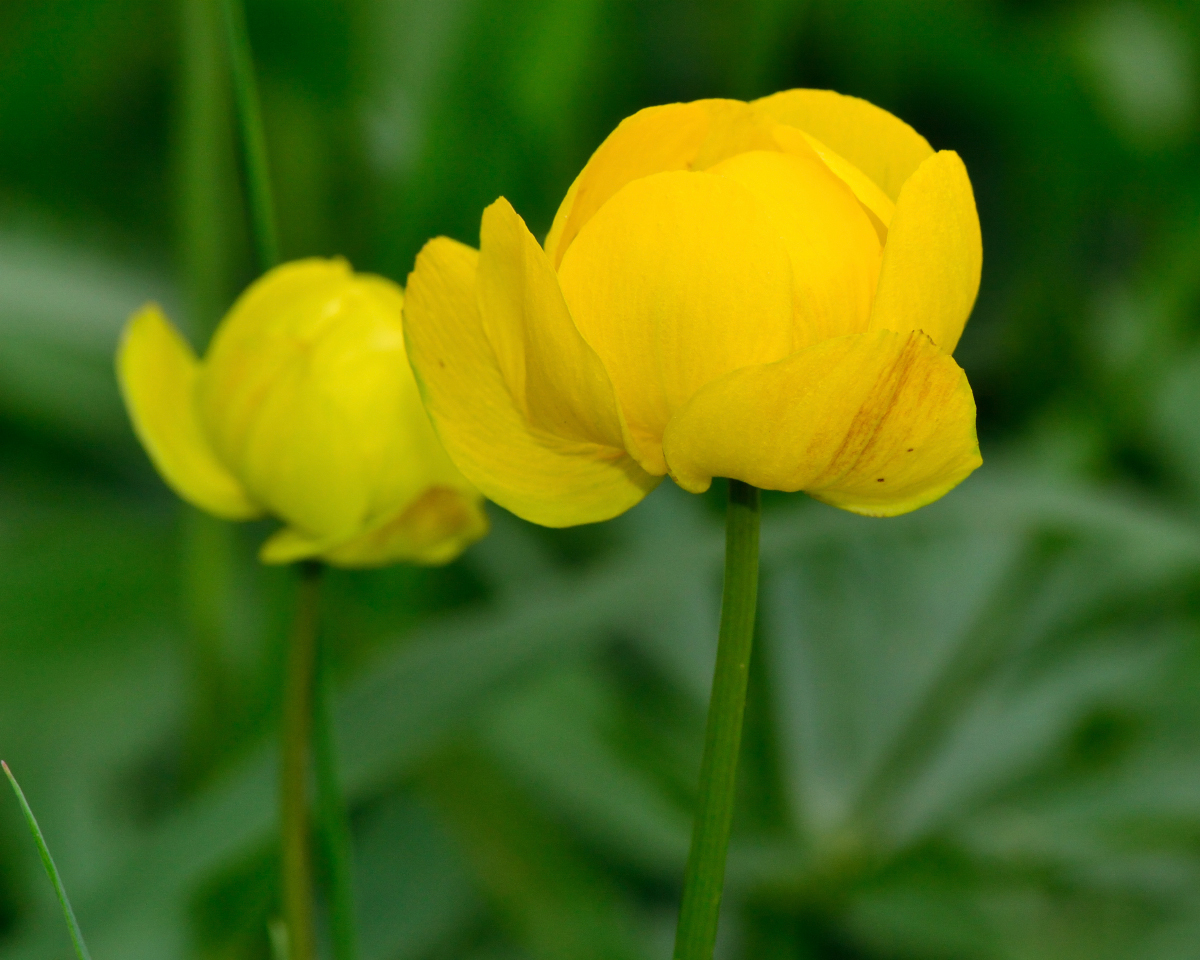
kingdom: Plantae
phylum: Tracheophyta
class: Magnoliopsida
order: Ranunculales
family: Ranunculaceae
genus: Trollius
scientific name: Trollius europaeus
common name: European globeflower
